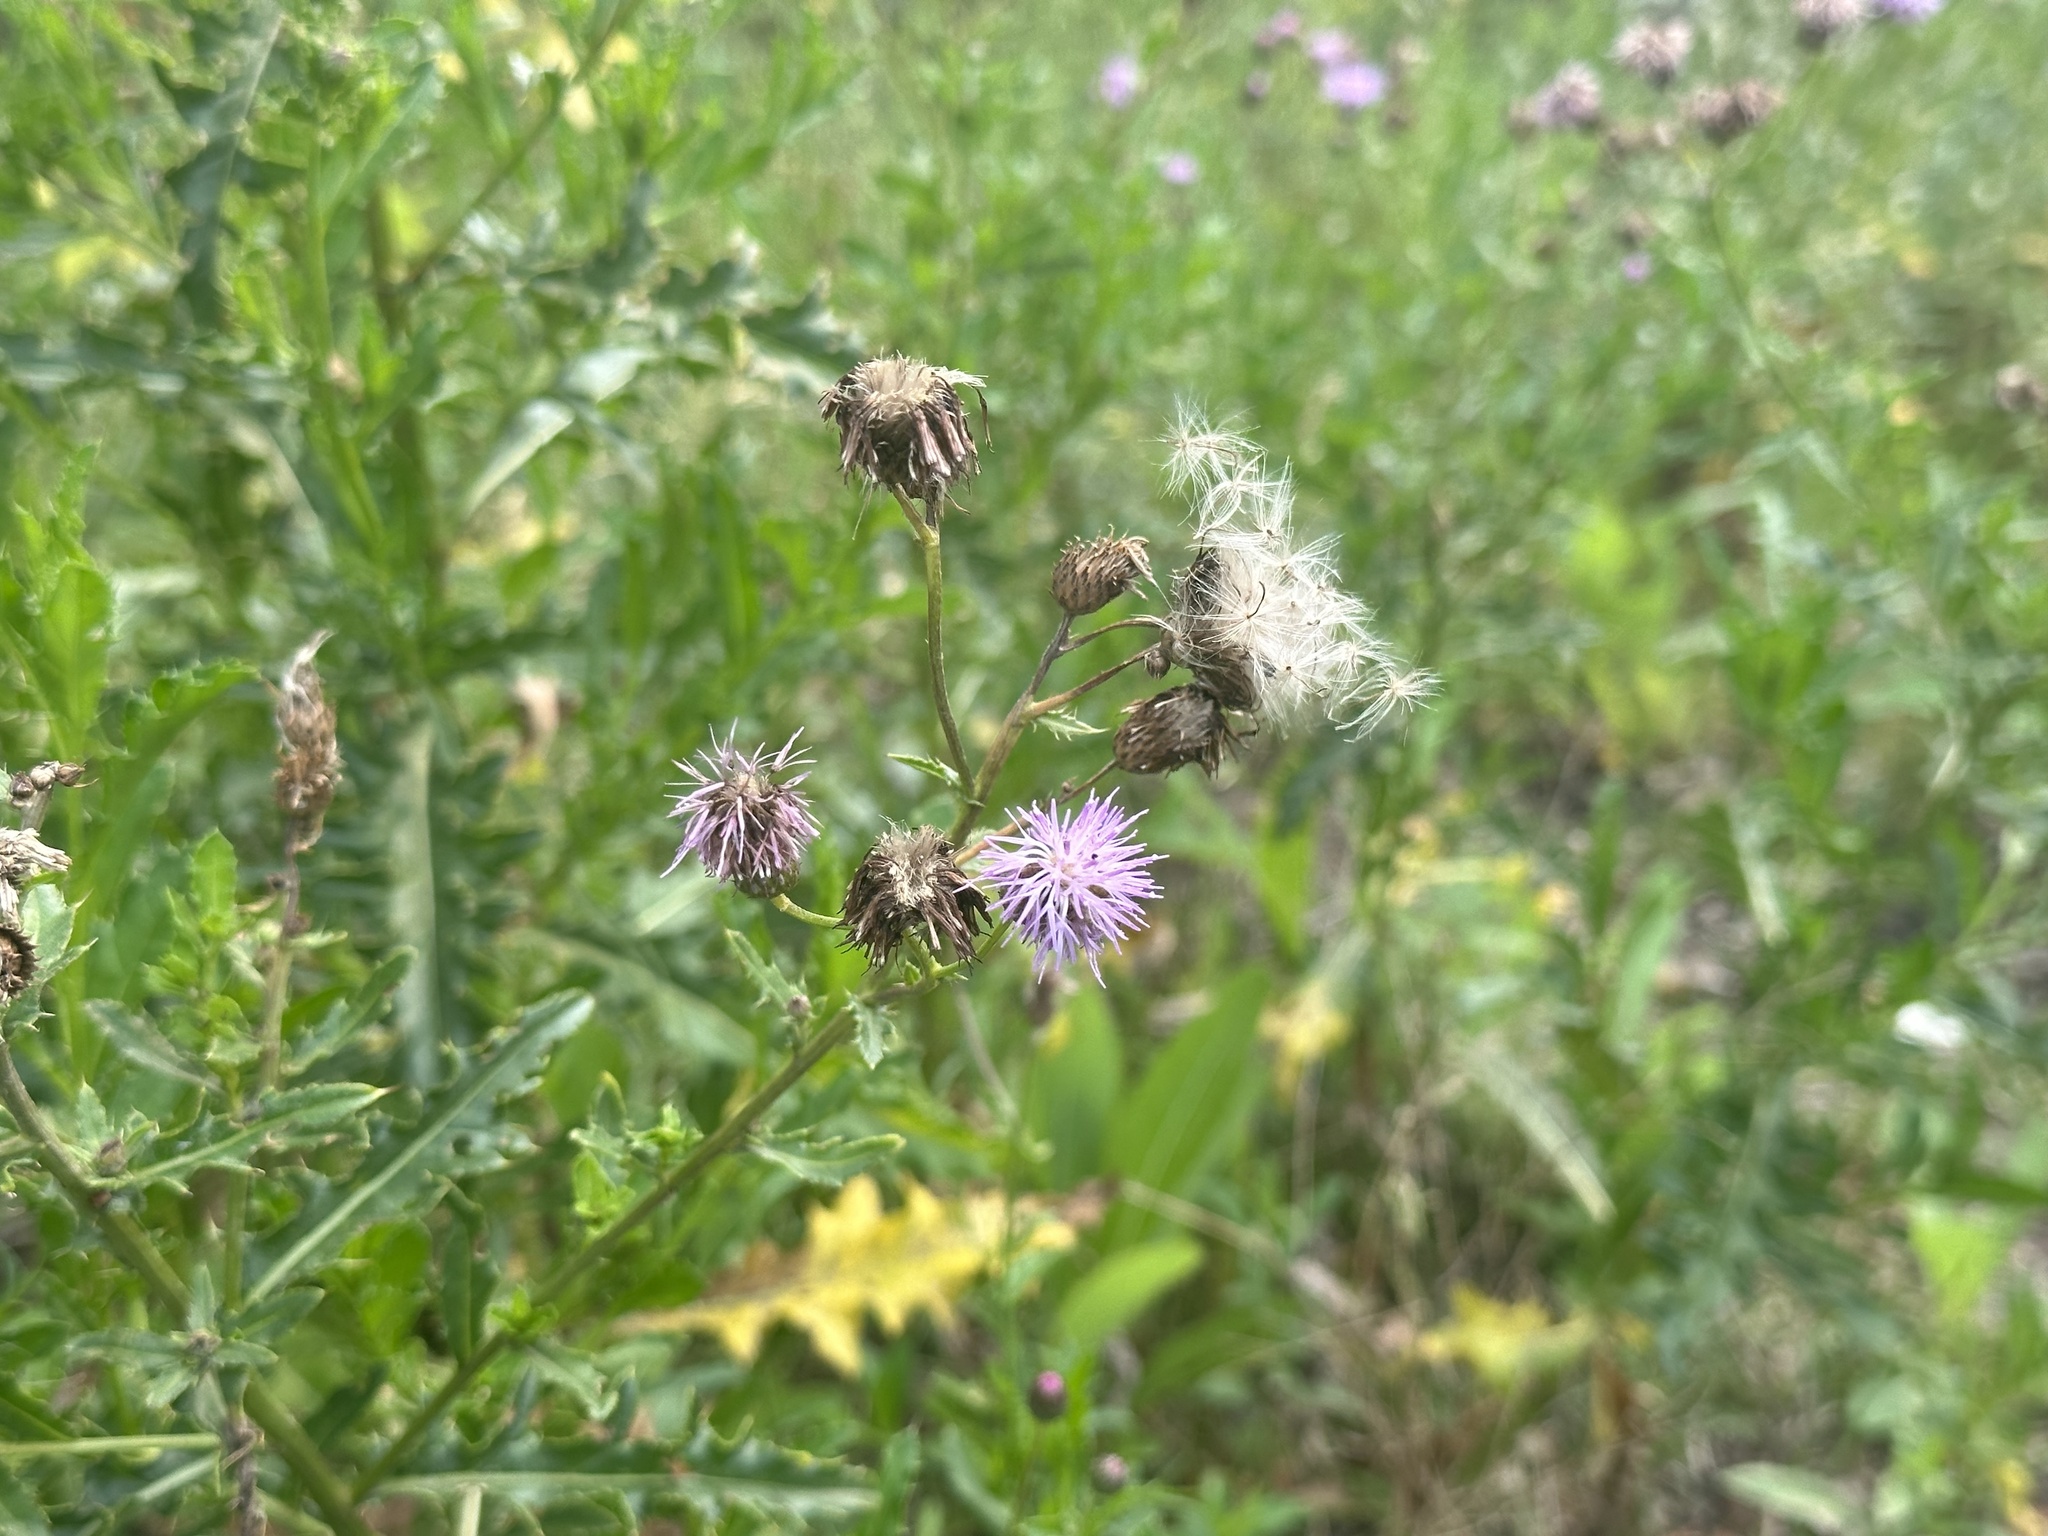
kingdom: Plantae
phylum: Tracheophyta
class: Magnoliopsida
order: Asterales
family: Asteraceae
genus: Cirsium
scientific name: Cirsium arvense
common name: Creeping thistle
